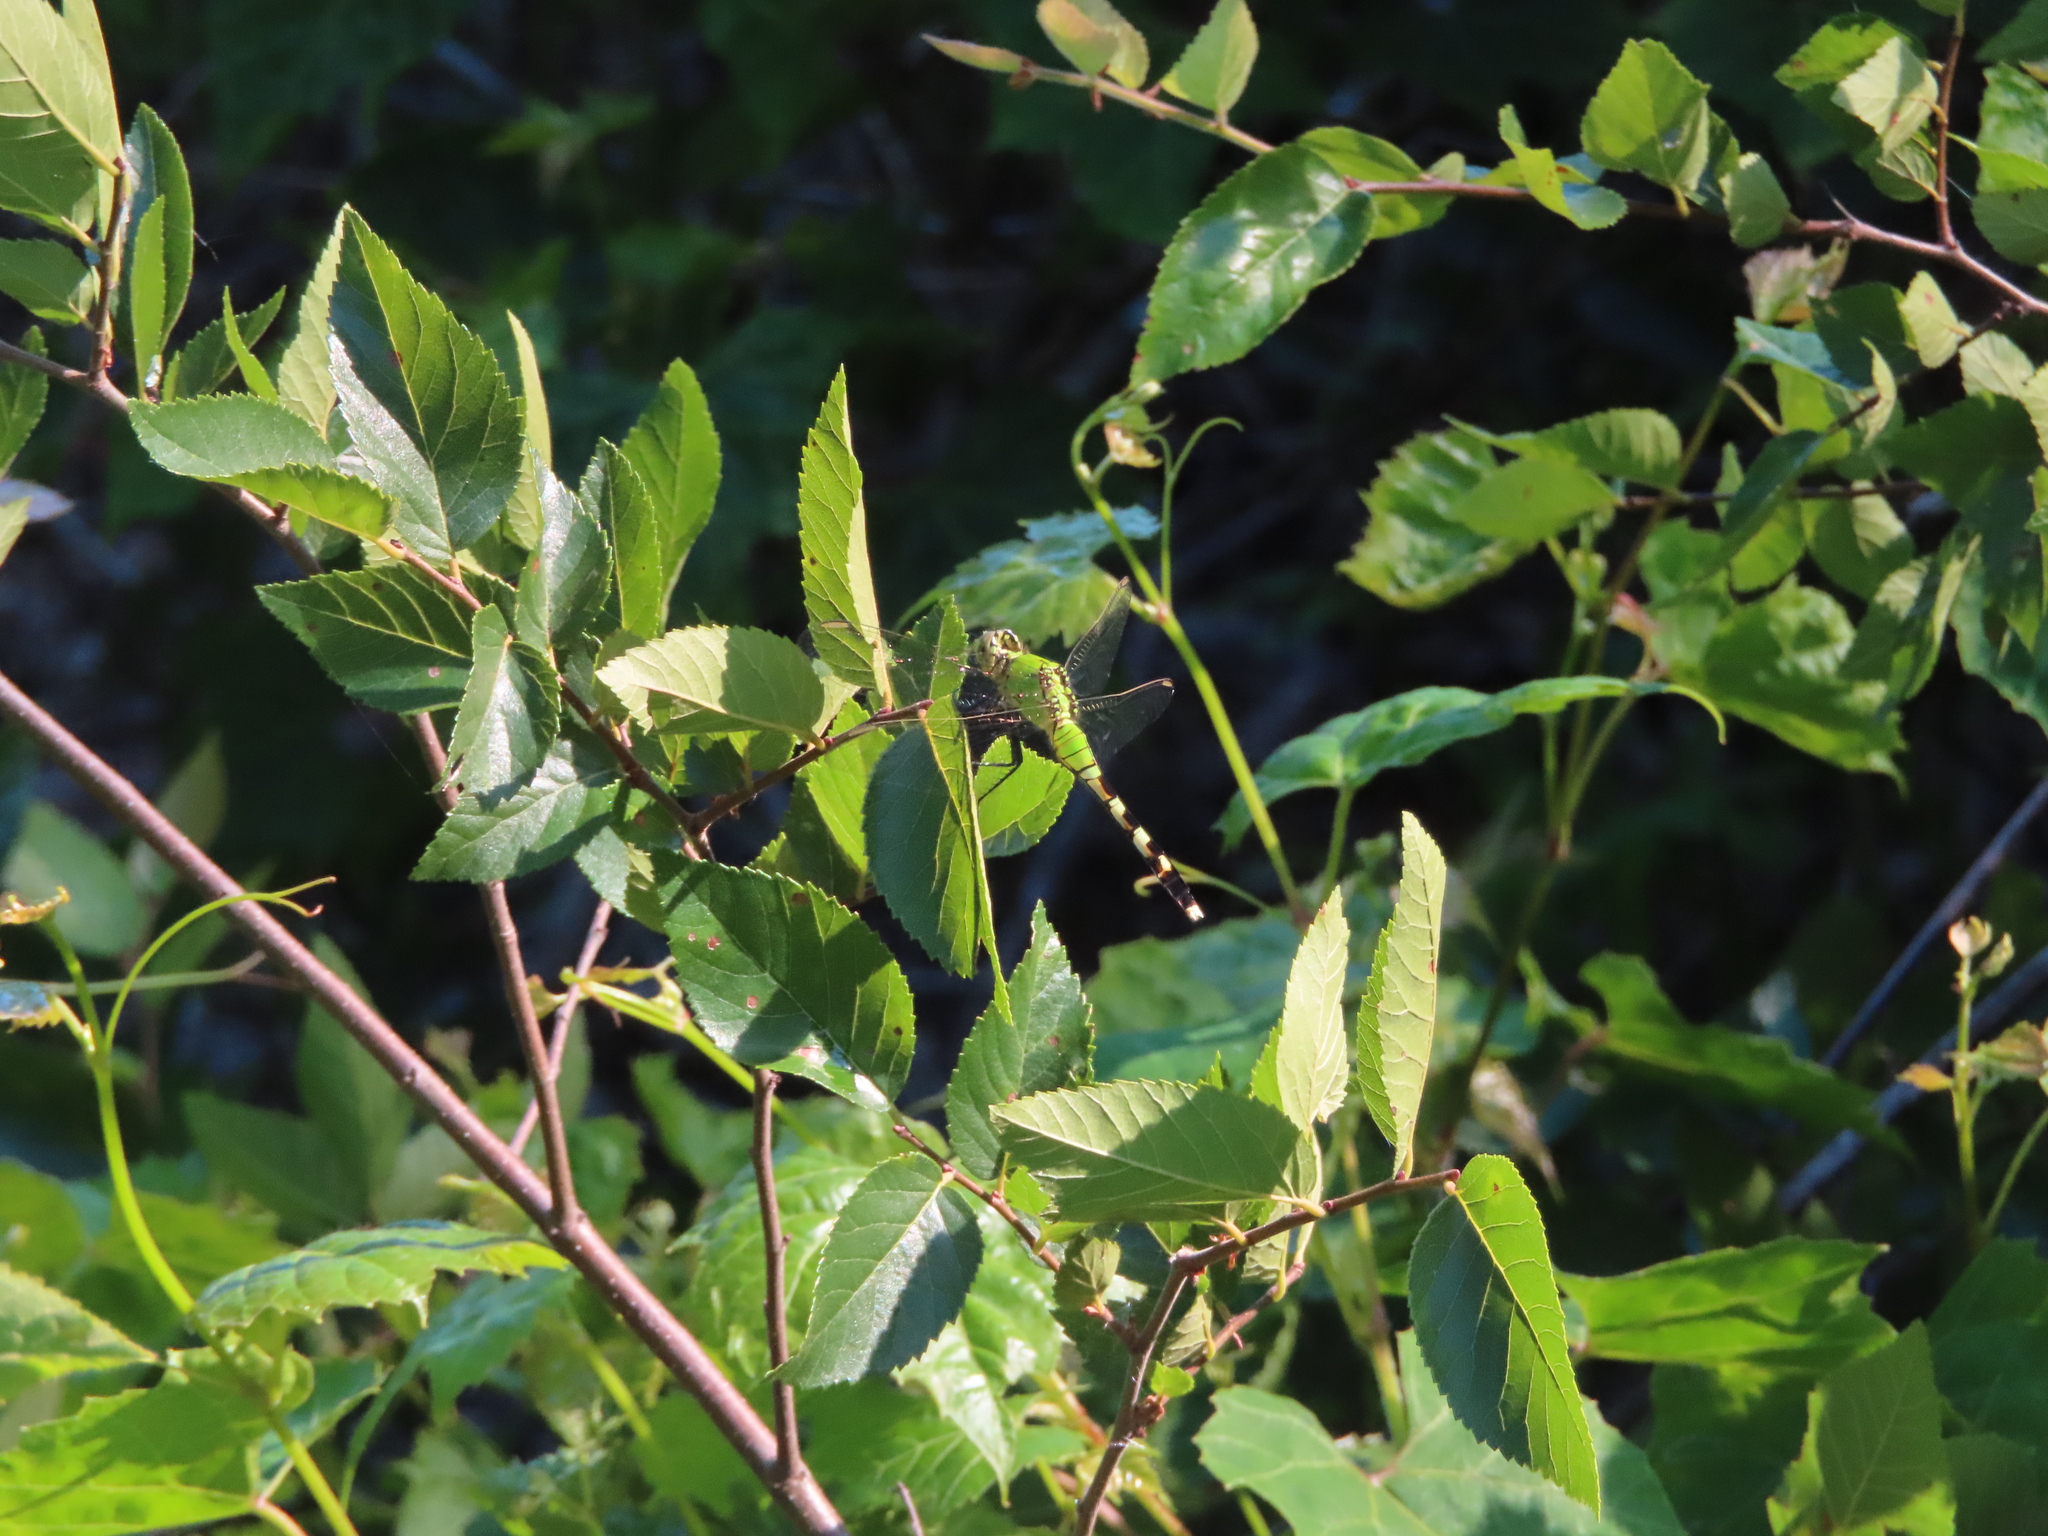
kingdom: Animalia
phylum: Arthropoda
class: Insecta
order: Odonata
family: Libellulidae
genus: Erythemis
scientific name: Erythemis simplicicollis
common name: Eastern pondhawk
